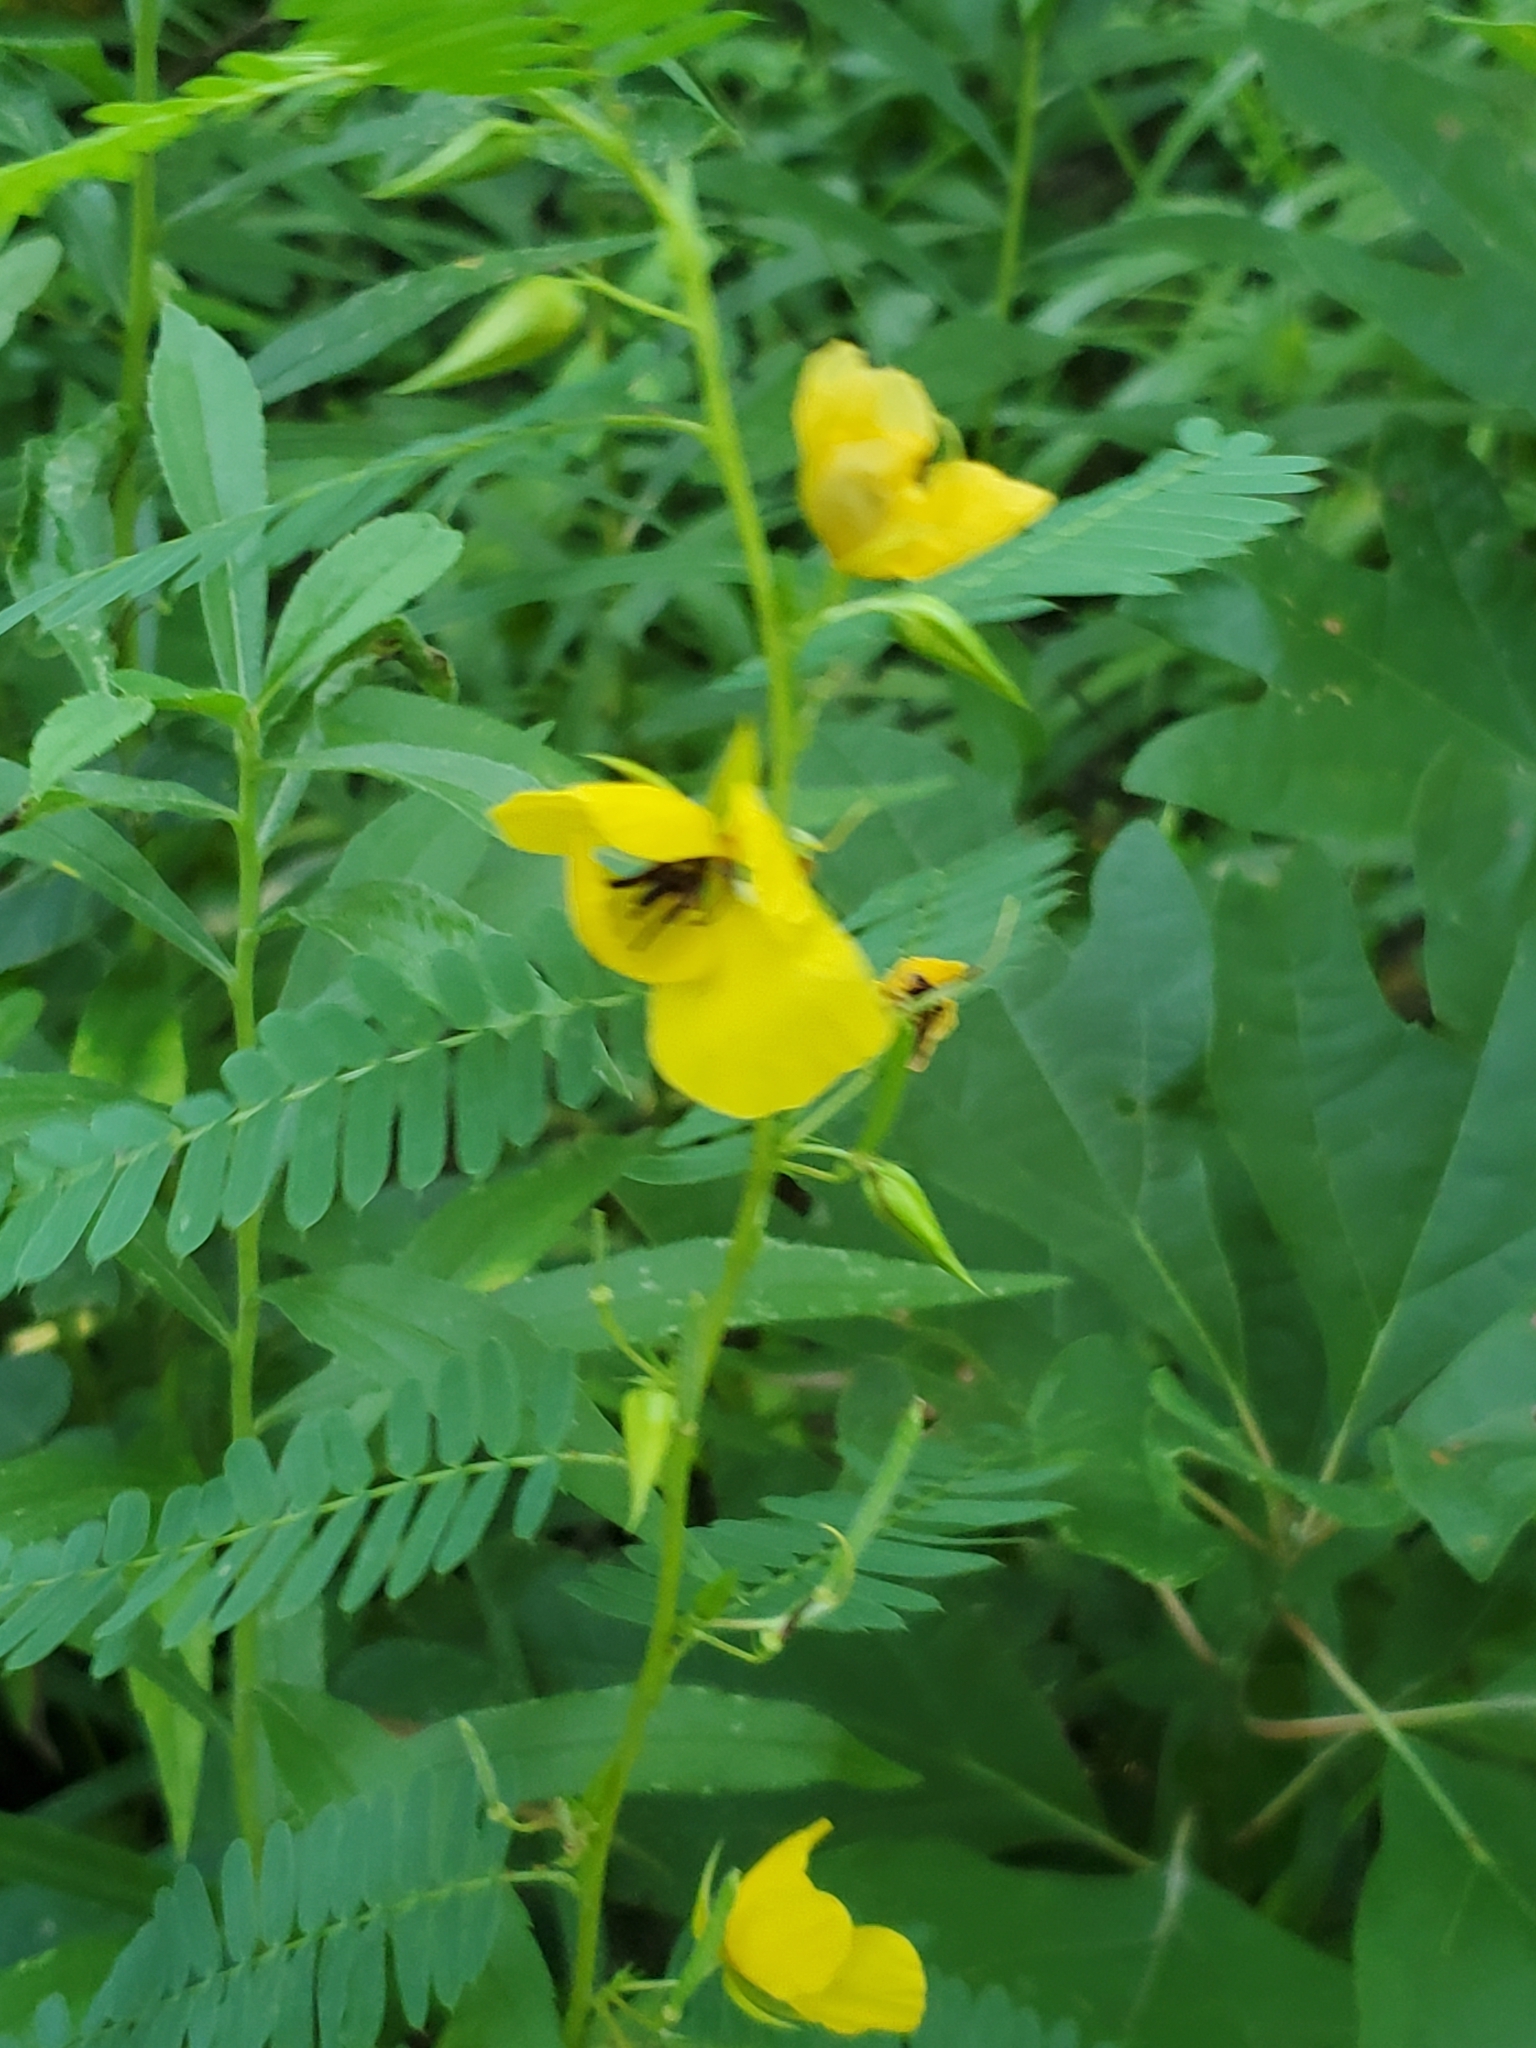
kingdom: Plantae
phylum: Tracheophyta
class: Magnoliopsida
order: Fabales
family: Fabaceae
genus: Chamaecrista
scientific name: Chamaecrista fasciculata
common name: Golden cassia
